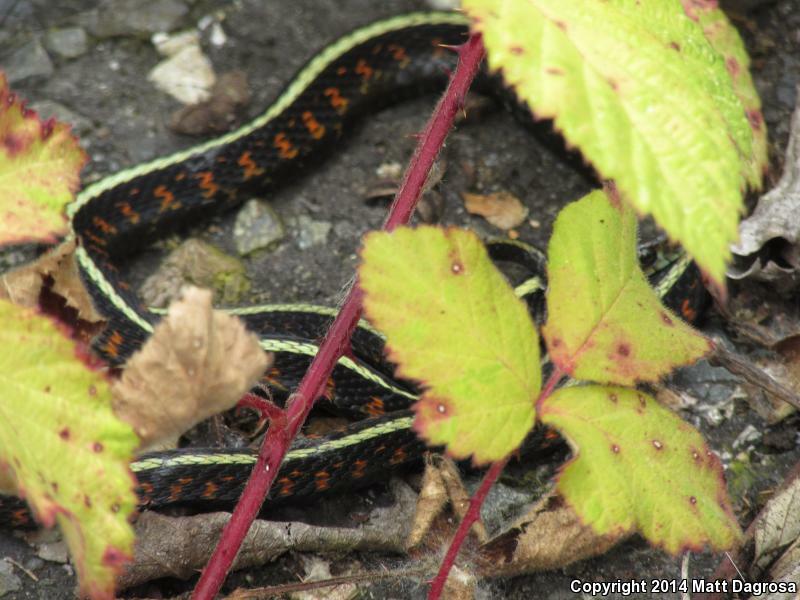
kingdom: Animalia
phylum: Chordata
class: Squamata
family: Colubridae
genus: Thamnophis
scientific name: Thamnophis sirtalis
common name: Common garter snake
